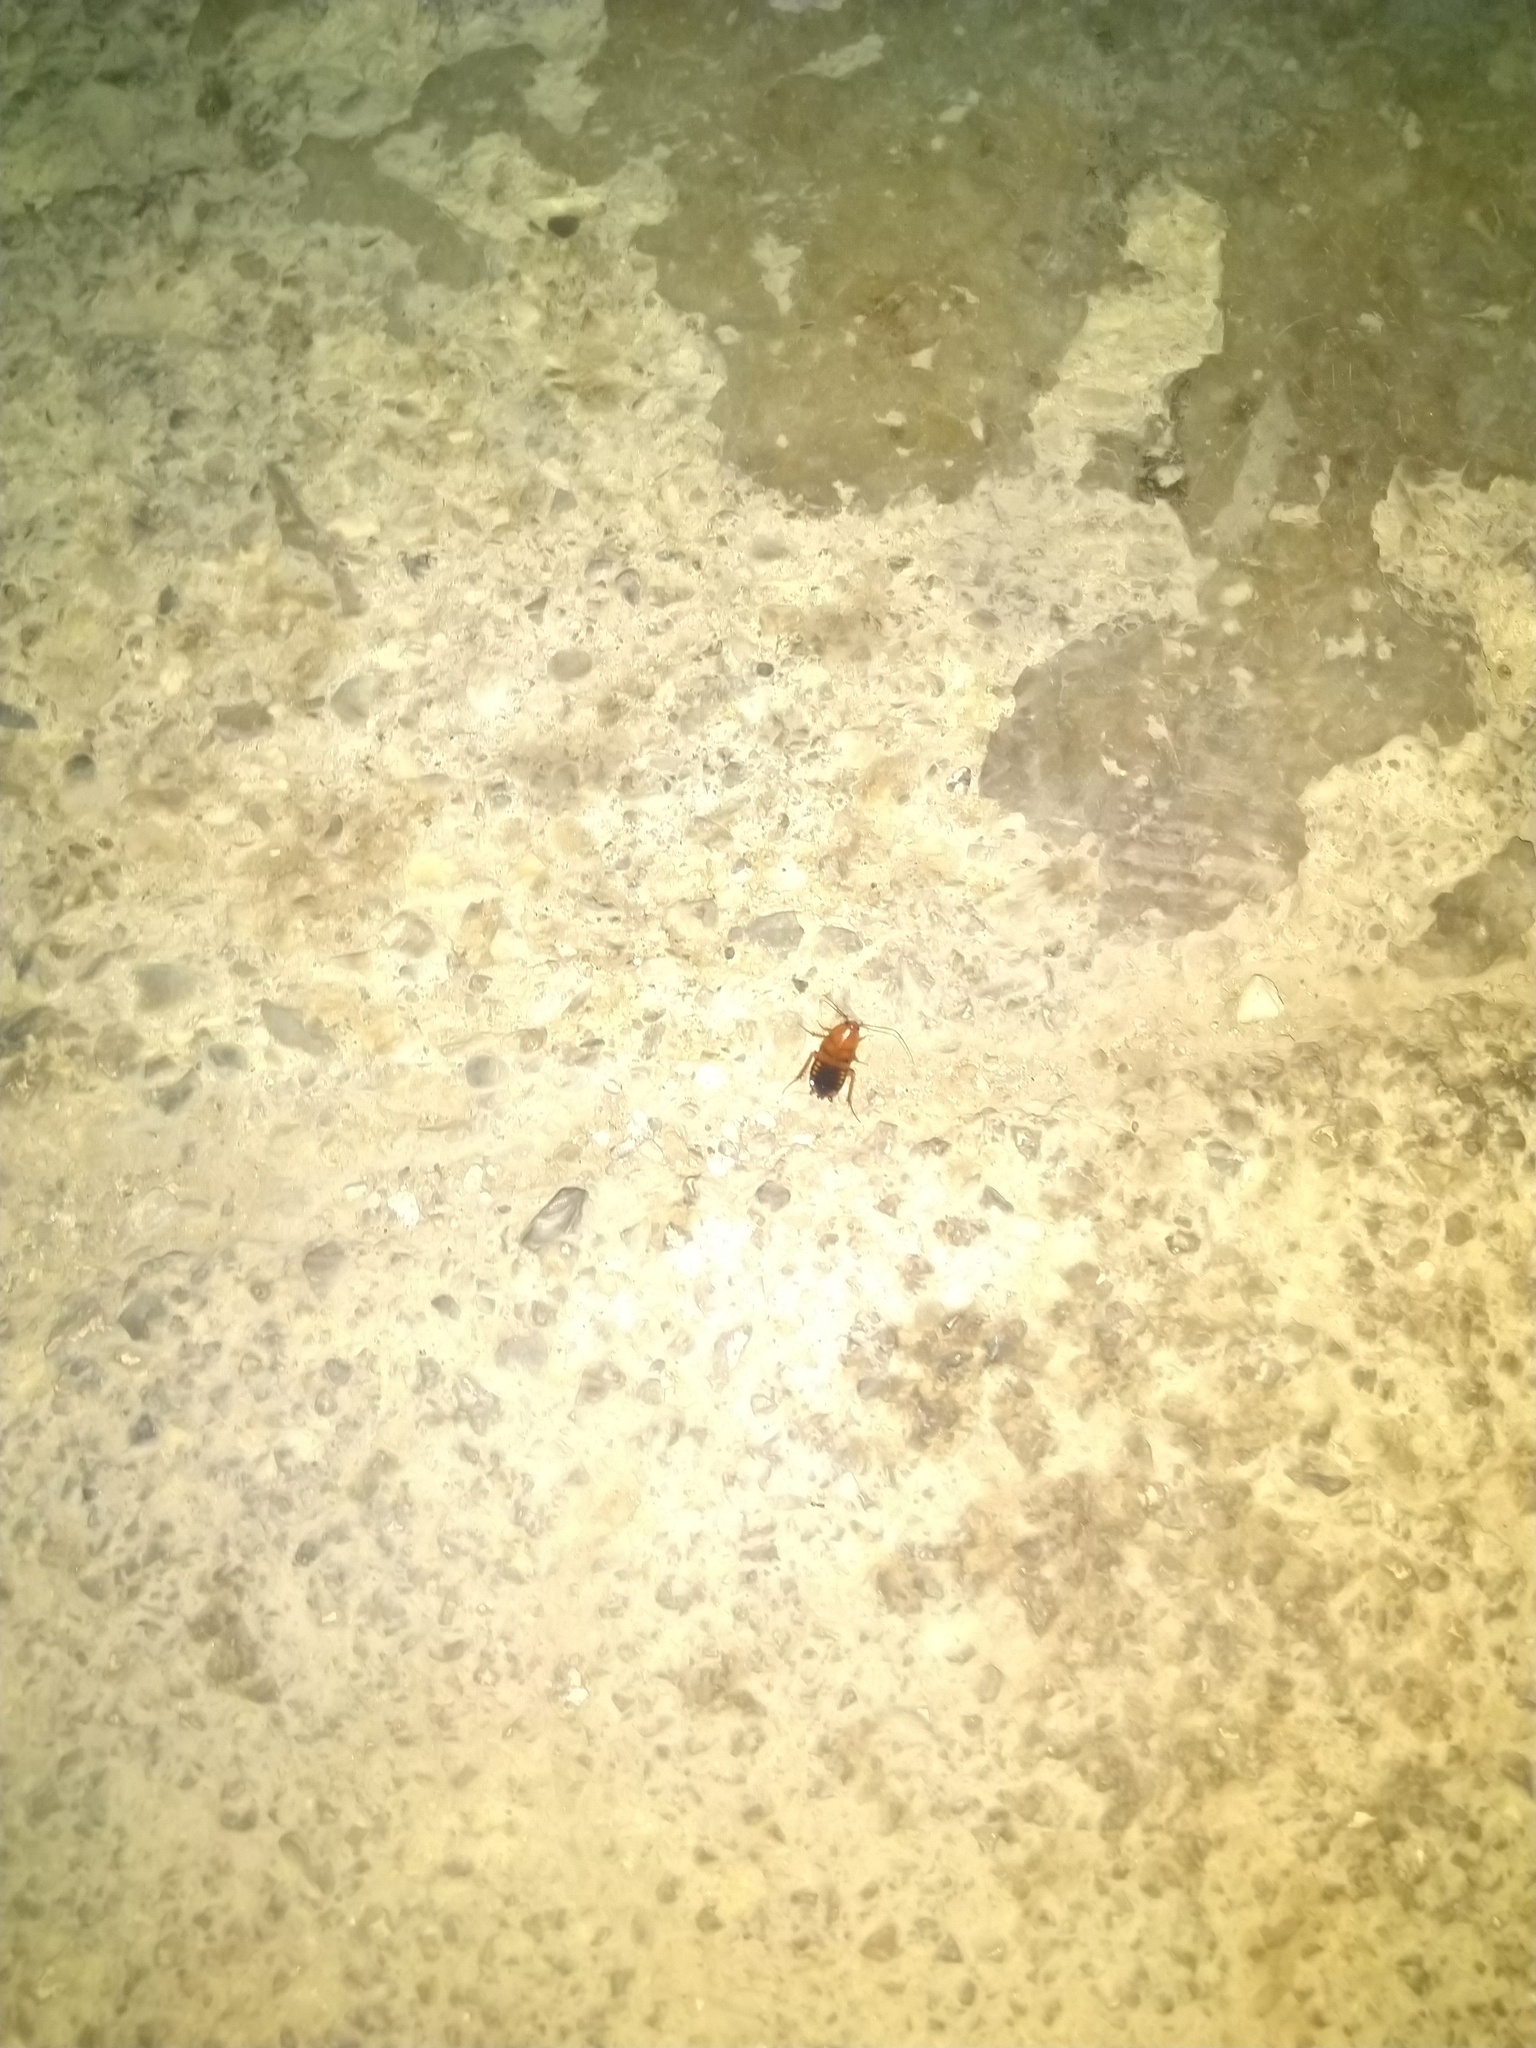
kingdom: Animalia
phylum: Arthropoda
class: Insecta
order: Blattodea
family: Blattidae
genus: Periplaneta
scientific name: Periplaneta lateralis
